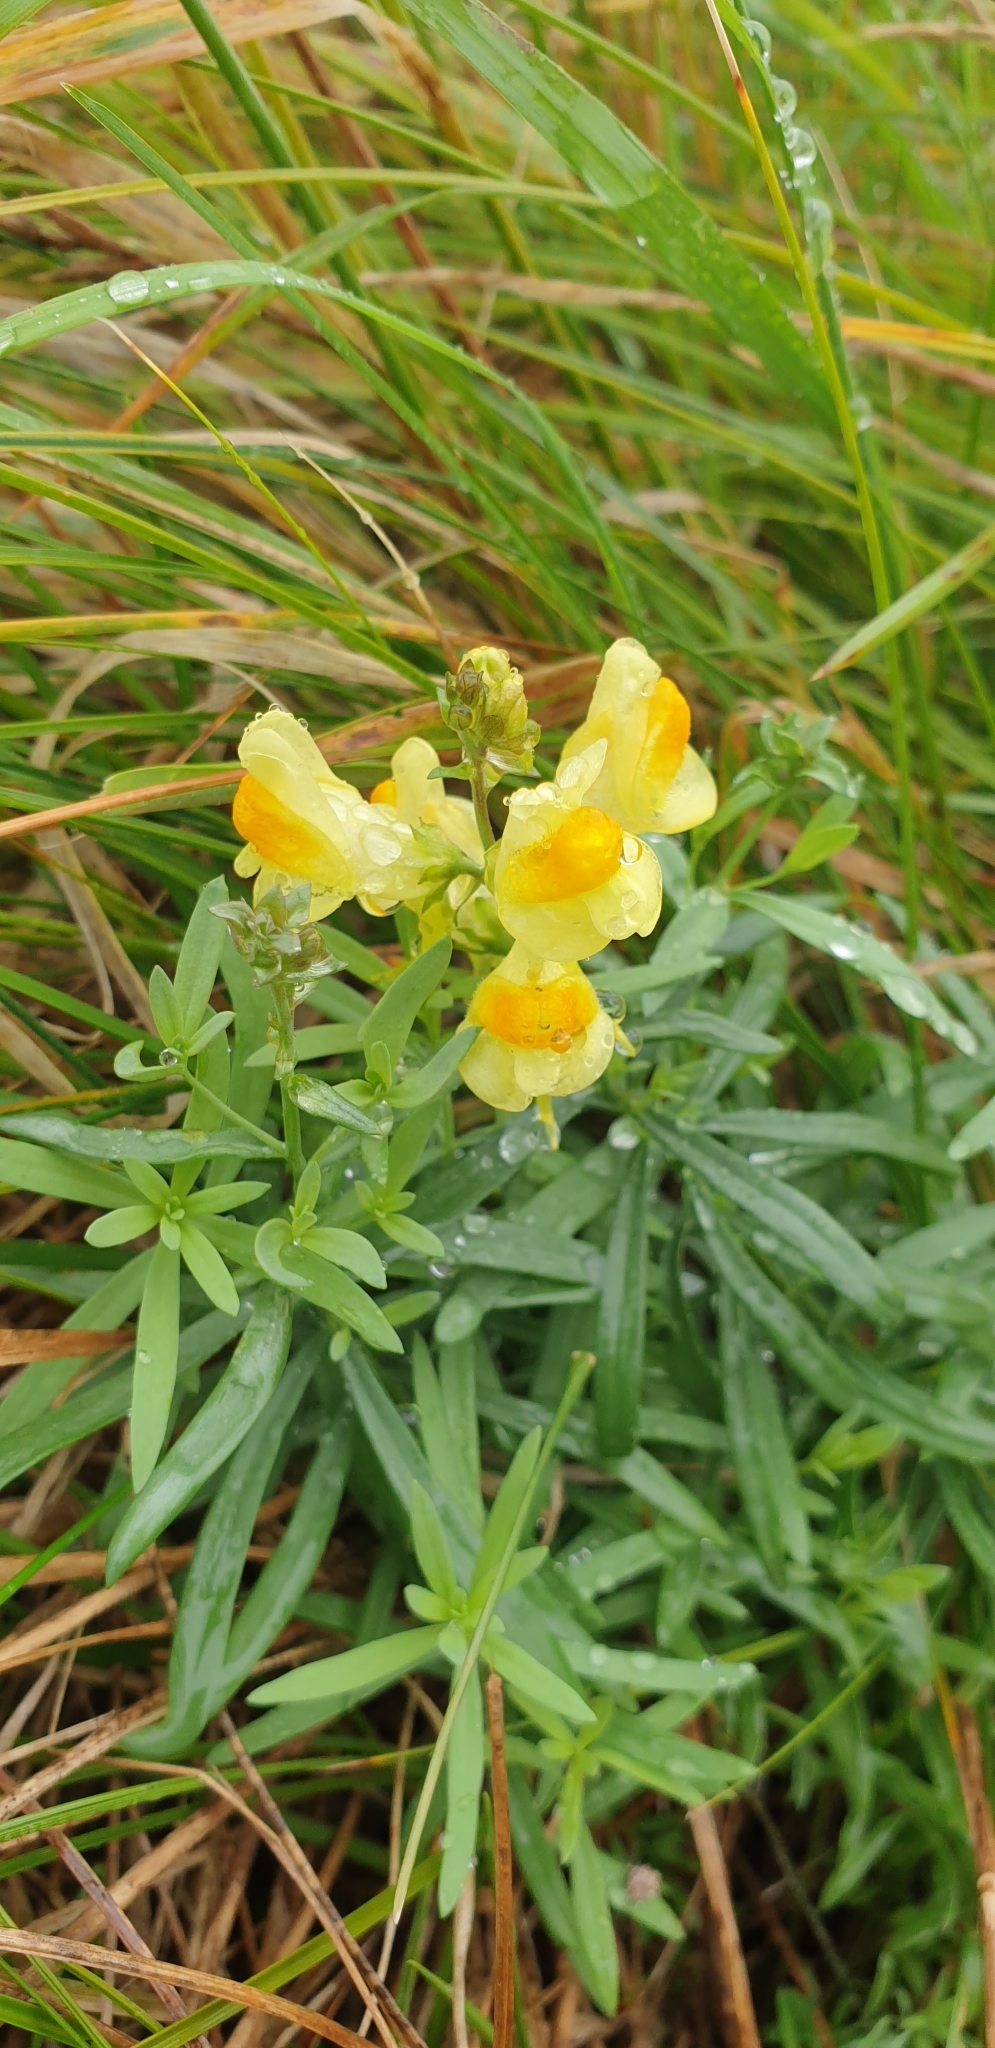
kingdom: Plantae
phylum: Tracheophyta
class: Magnoliopsida
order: Lamiales
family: Plantaginaceae
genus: Linaria
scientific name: Linaria vulgaris
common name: Butter and eggs
